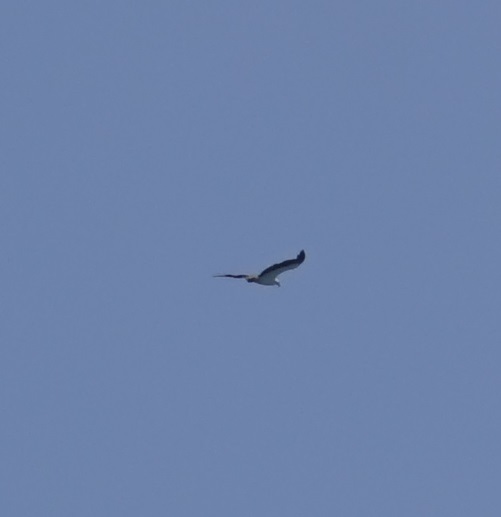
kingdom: Animalia
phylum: Chordata
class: Aves
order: Accipitriformes
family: Accipitridae
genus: Haliaeetus
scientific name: Haliaeetus leucogaster
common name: White-bellied sea eagle
